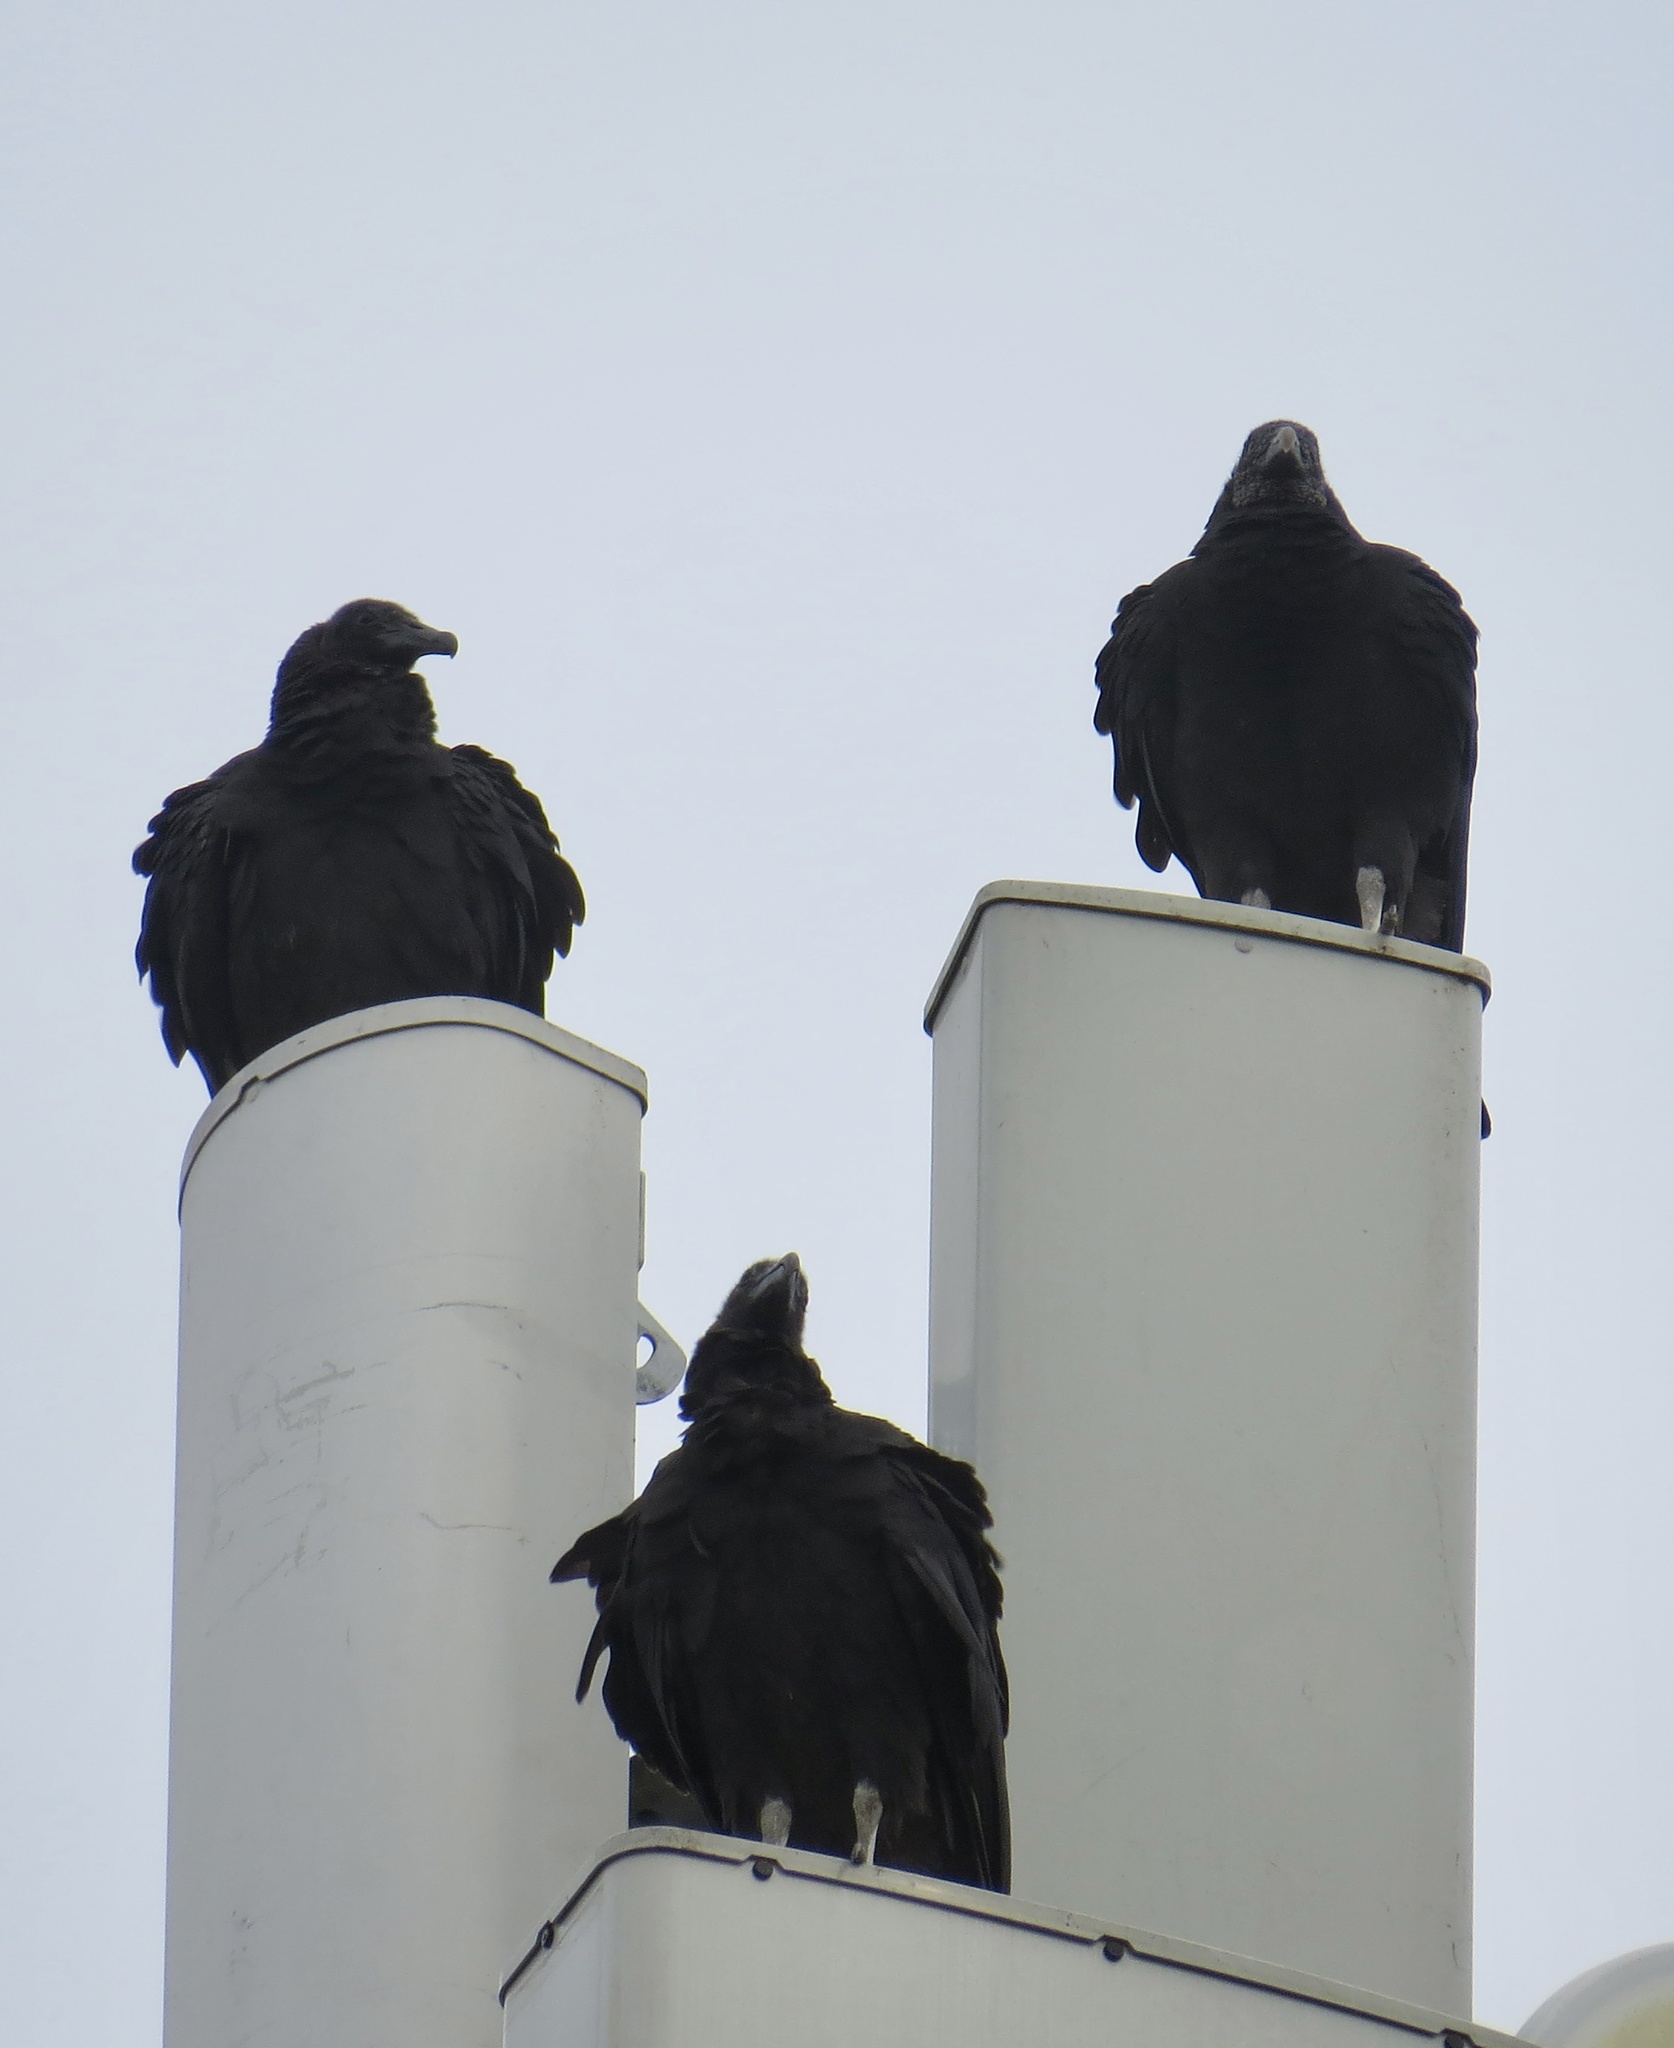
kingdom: Animalia
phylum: Chordata
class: Aves
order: Accipitriformes
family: Cathartidae
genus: Coragyps
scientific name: Coragyps atratus
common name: Black vulture
